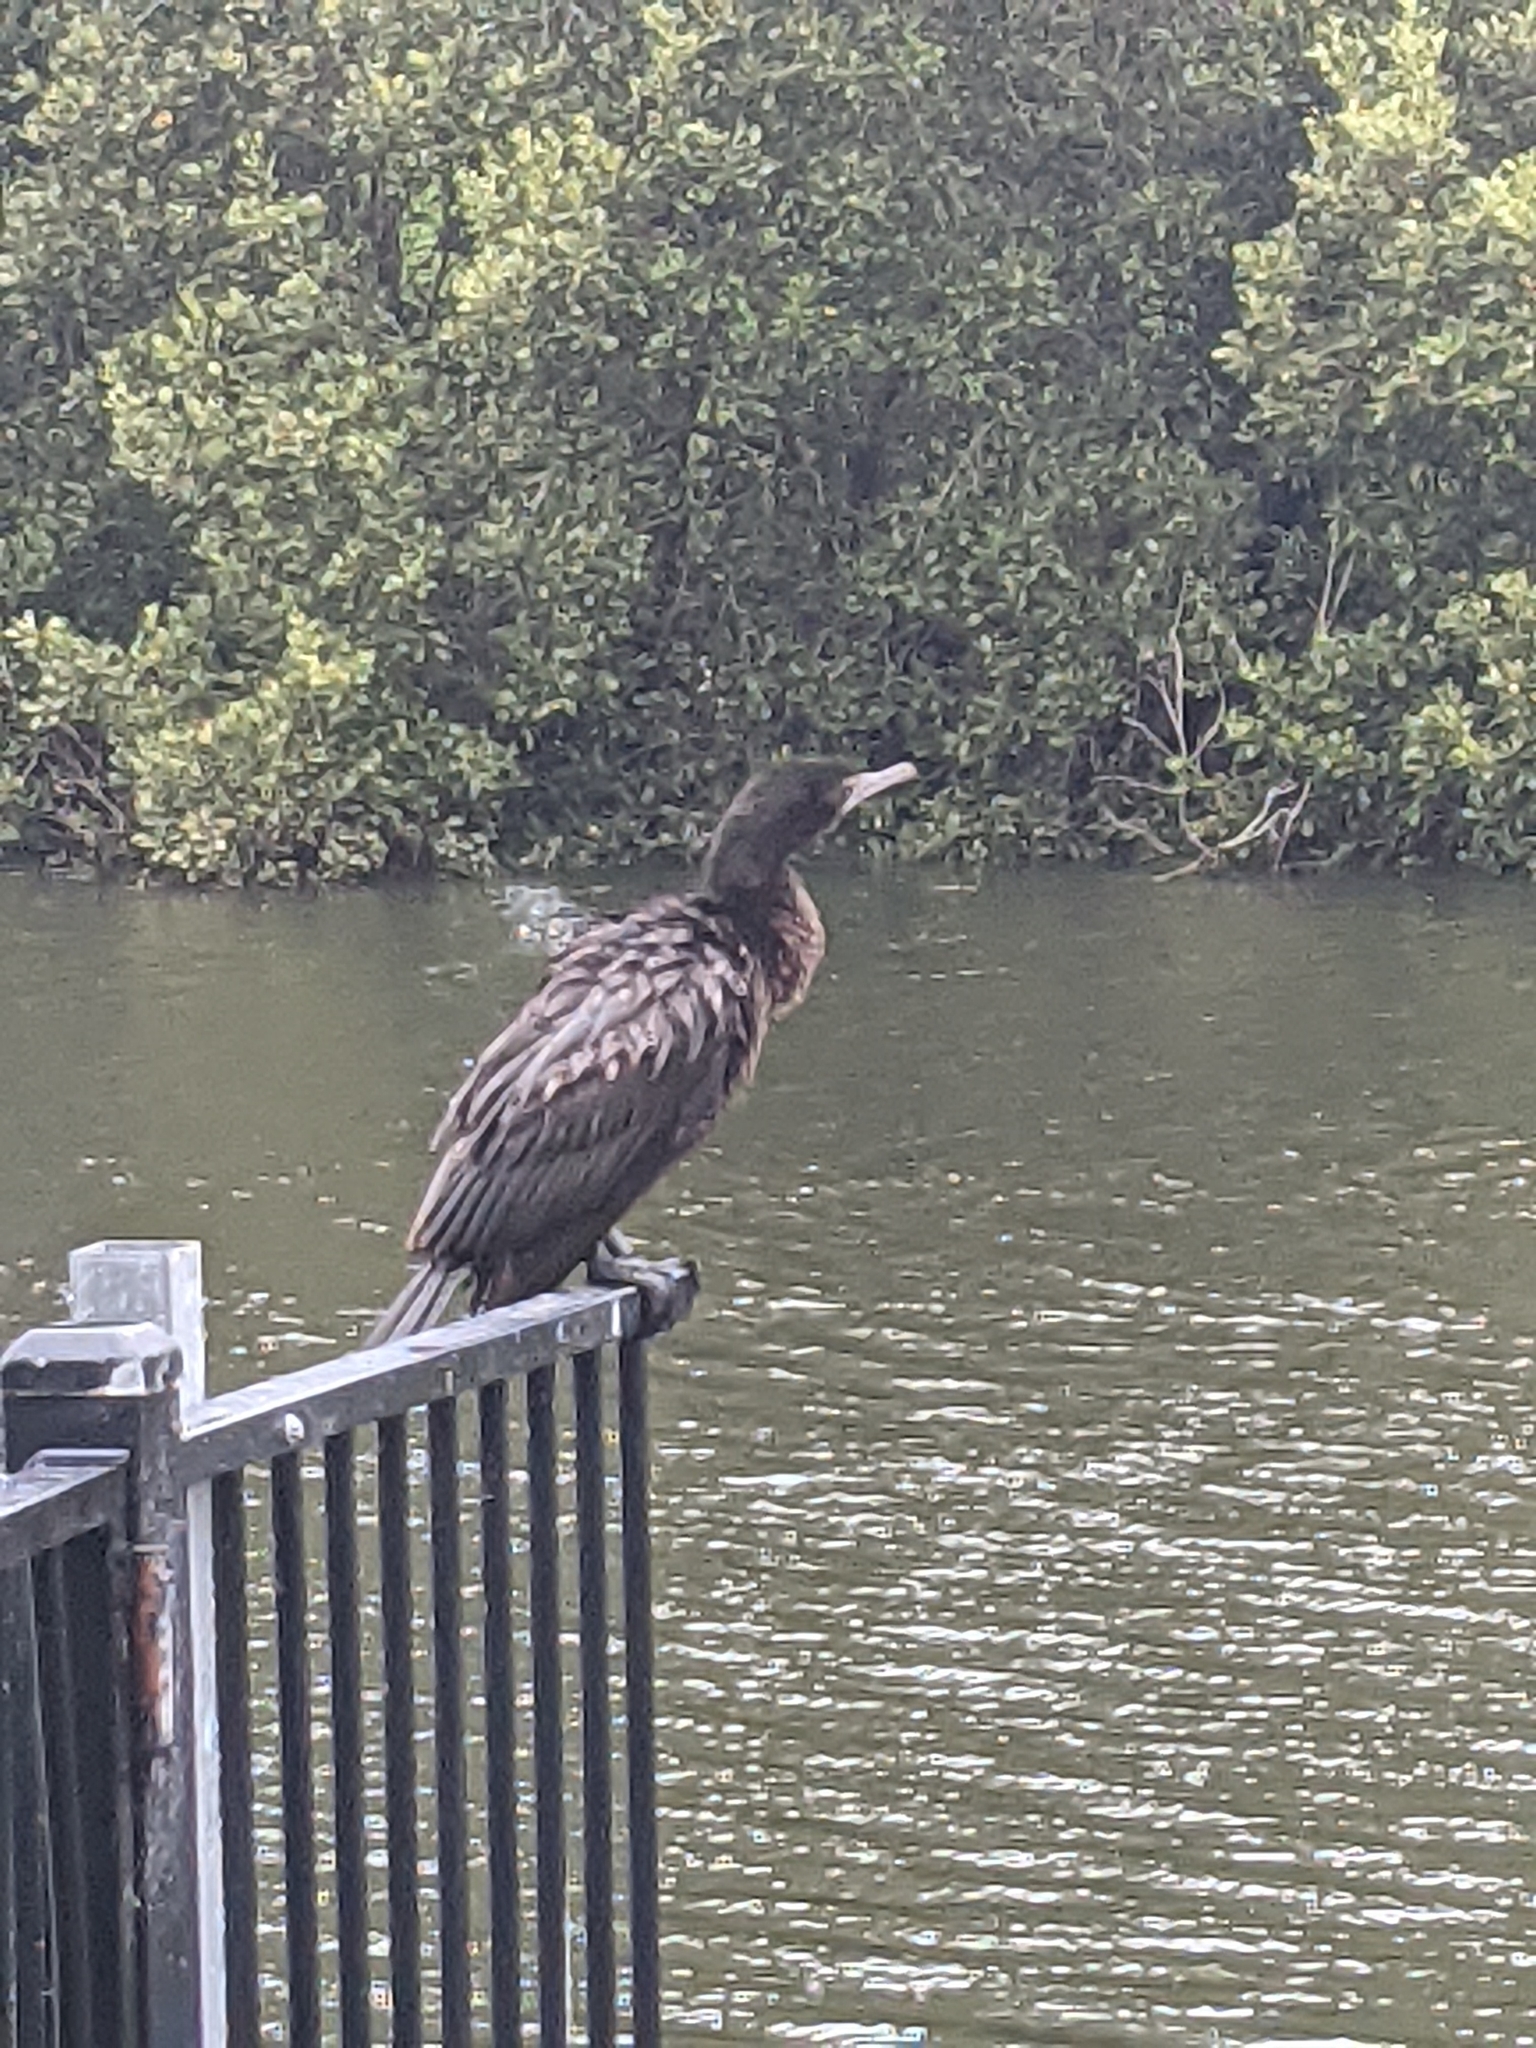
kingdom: Animalia
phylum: Chordata
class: Aves
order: Suliformes
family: Phalacrocoracidae
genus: Phalacrocorax
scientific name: Phalacrocorax sulcirostris
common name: Little black cormorant
